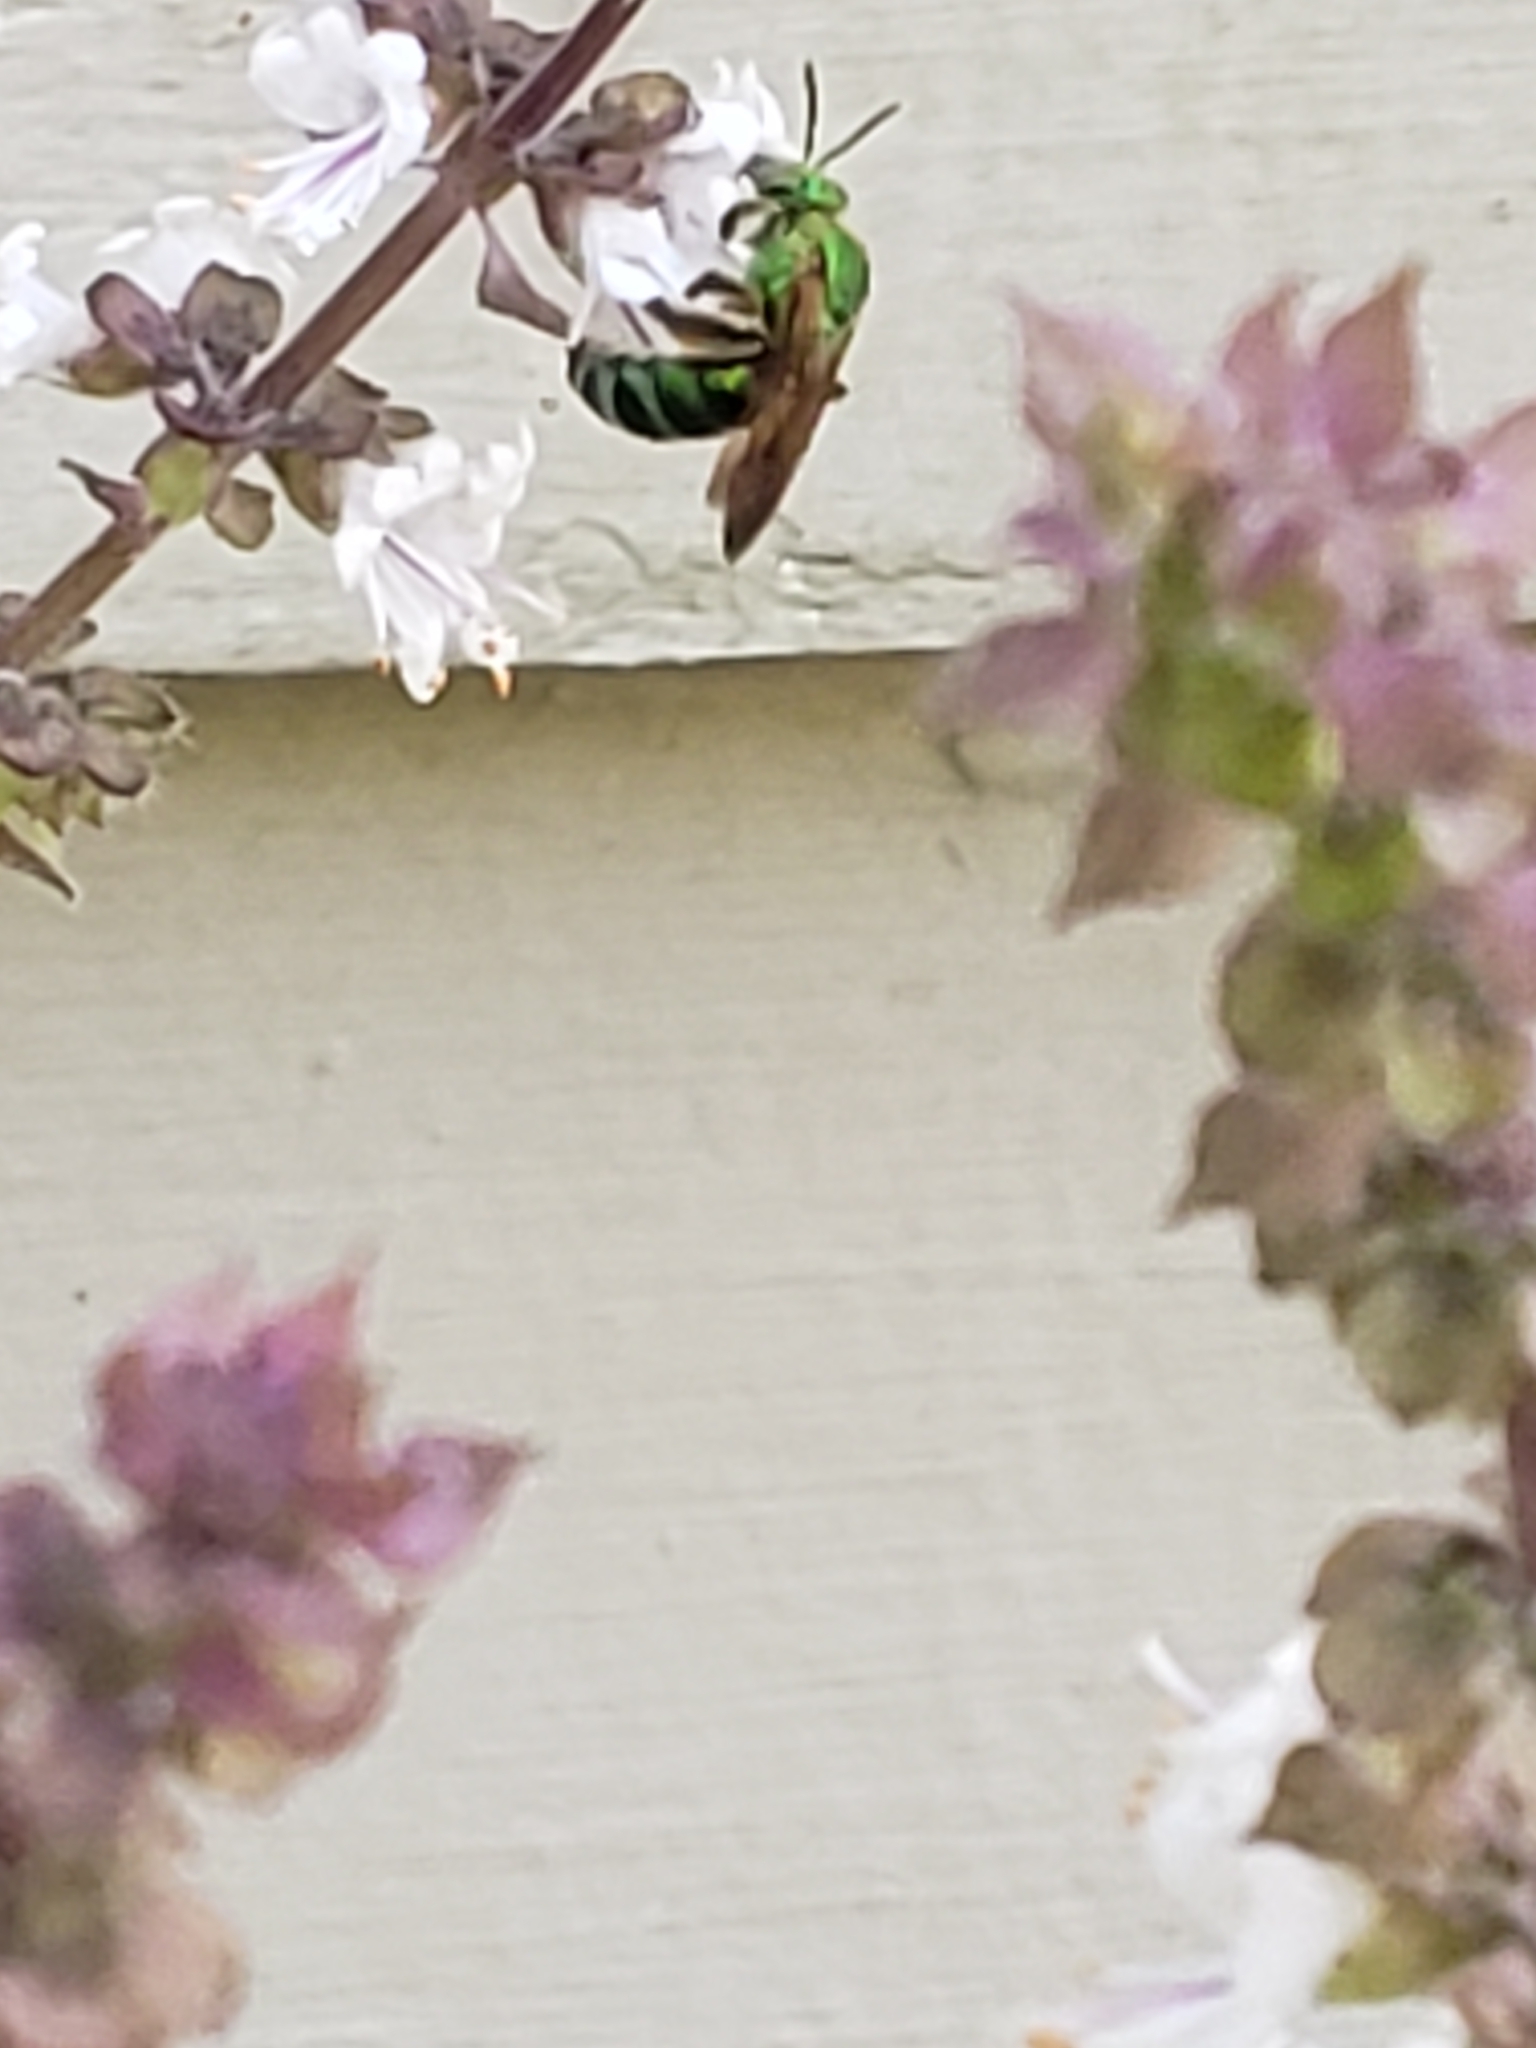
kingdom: Animalia
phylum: Arthropoda
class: Insecta
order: Hymenoptera
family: Halictidae
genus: Agapostemon
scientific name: Agapostemon splendens
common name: Brown-winged striped sweat bee
